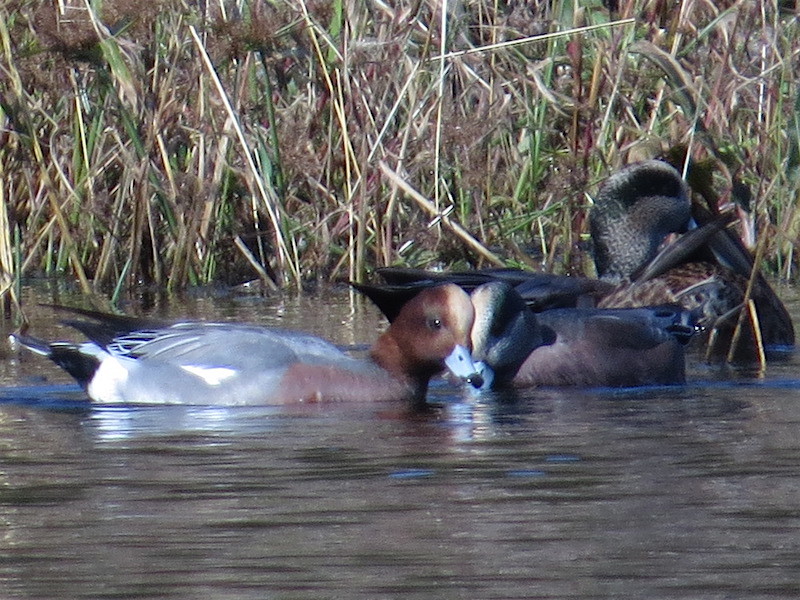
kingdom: Animalia
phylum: Chordata
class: Aves
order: Anseriformes
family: Anatidae
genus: Mareca
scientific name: Mareca penelope
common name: Eurasian wigeon
